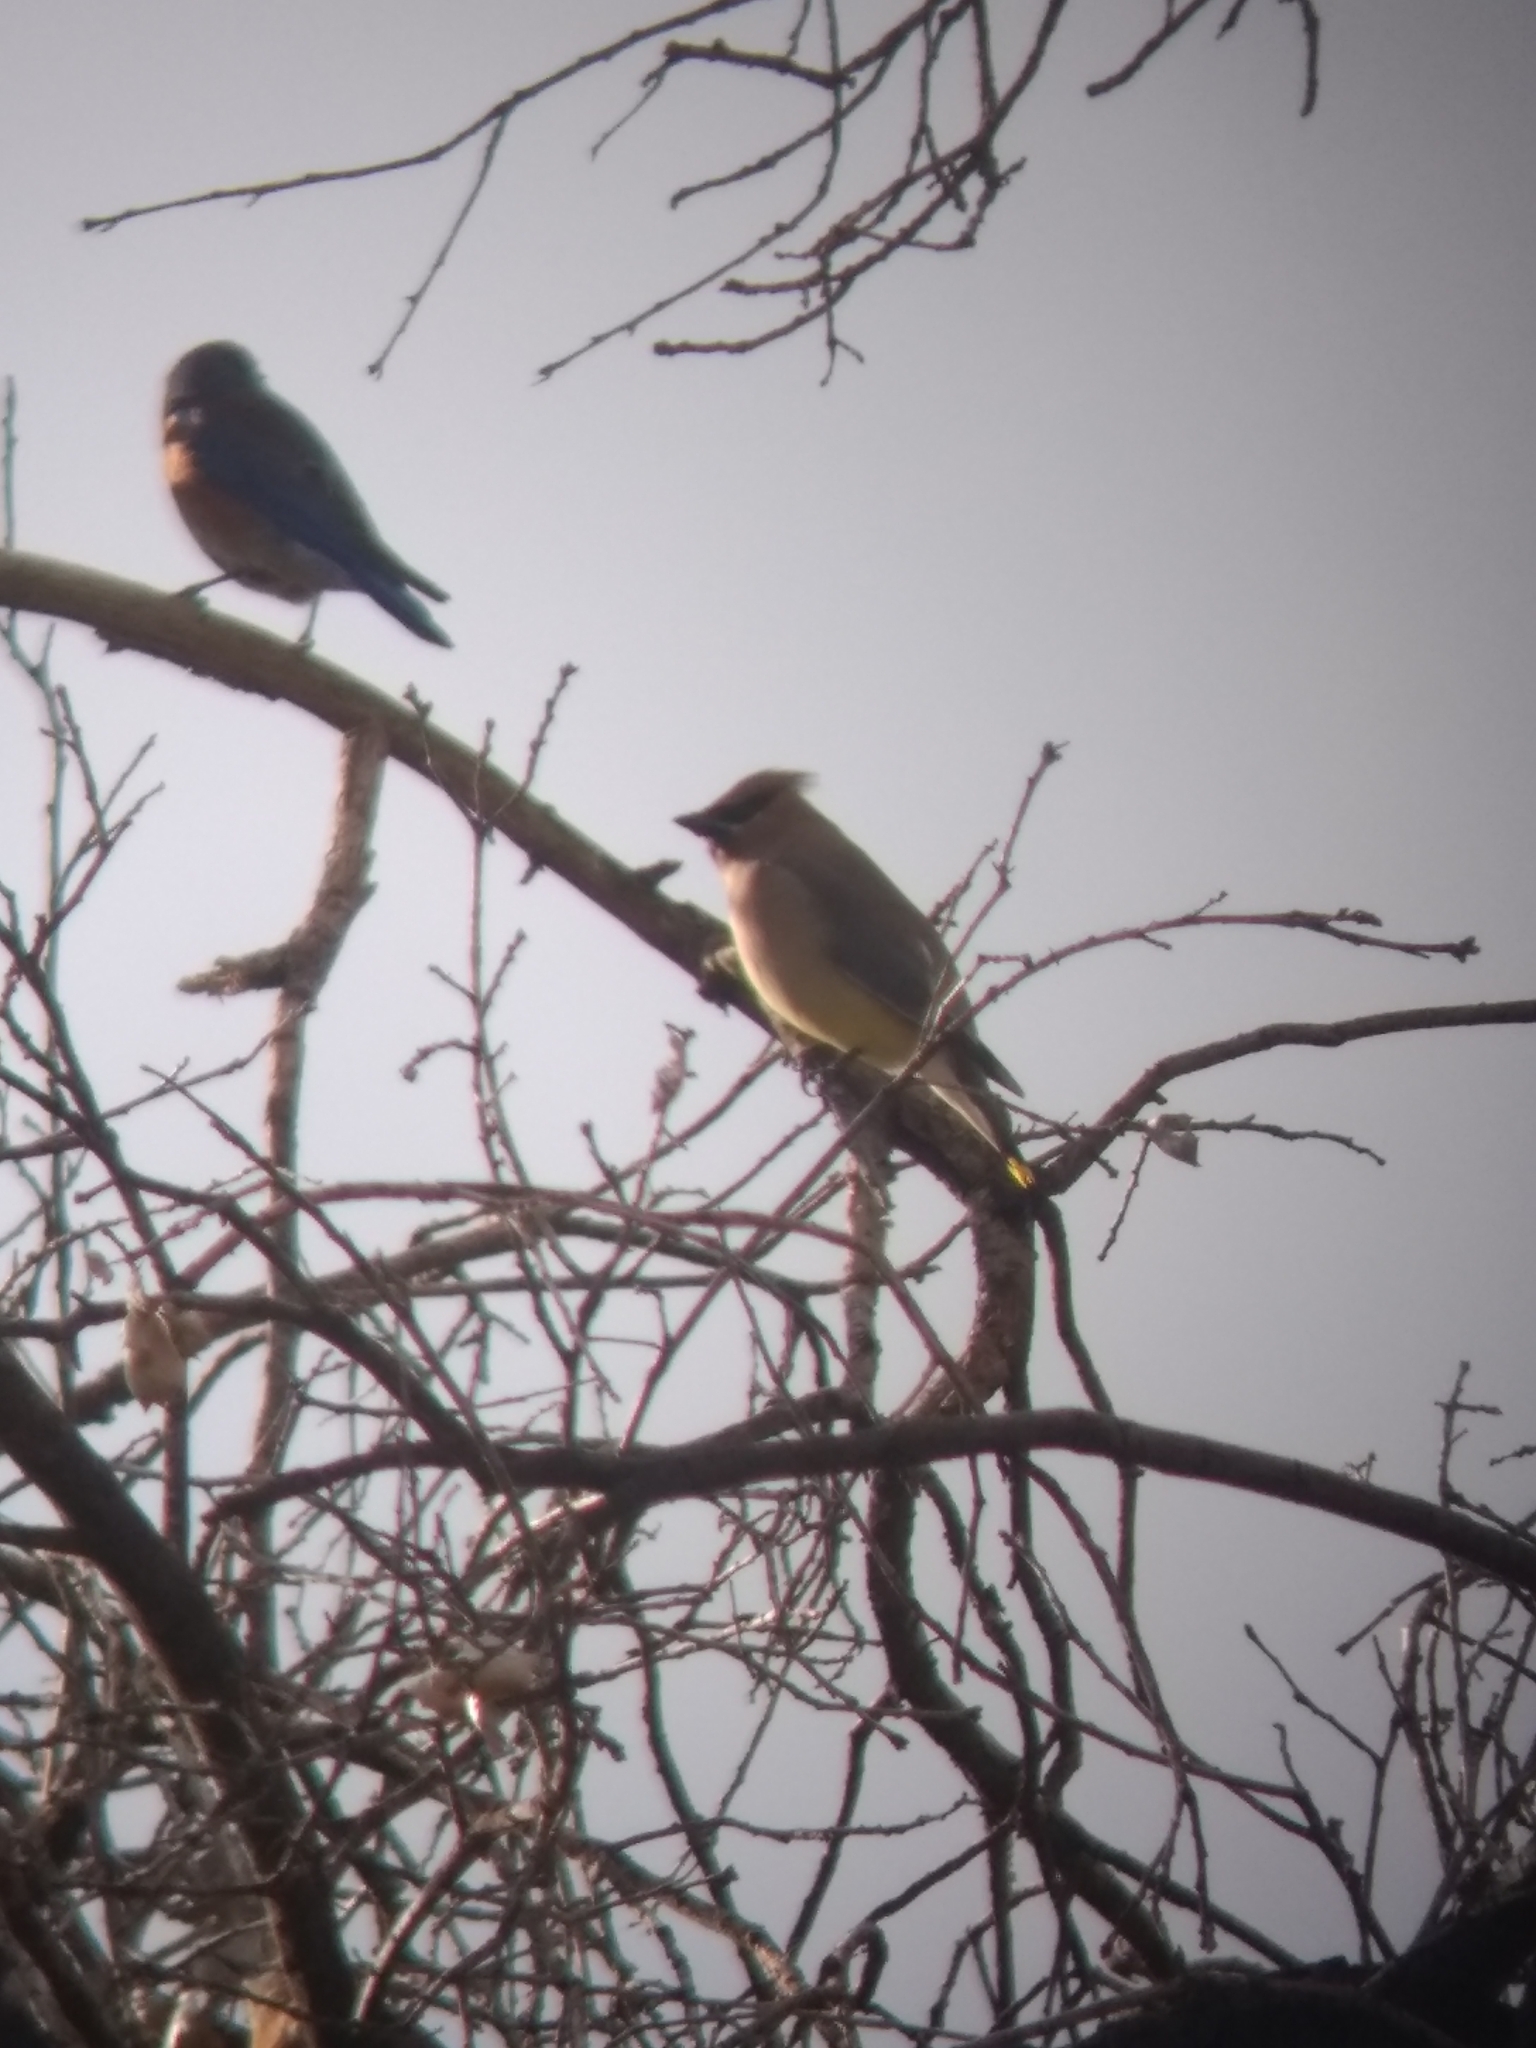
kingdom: Animalia
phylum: Chordata
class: Aves
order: Passeriformes
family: Bombycillidae
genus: Bombycilla
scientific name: Bombycilla cedrorum
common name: Cedar waxwing
